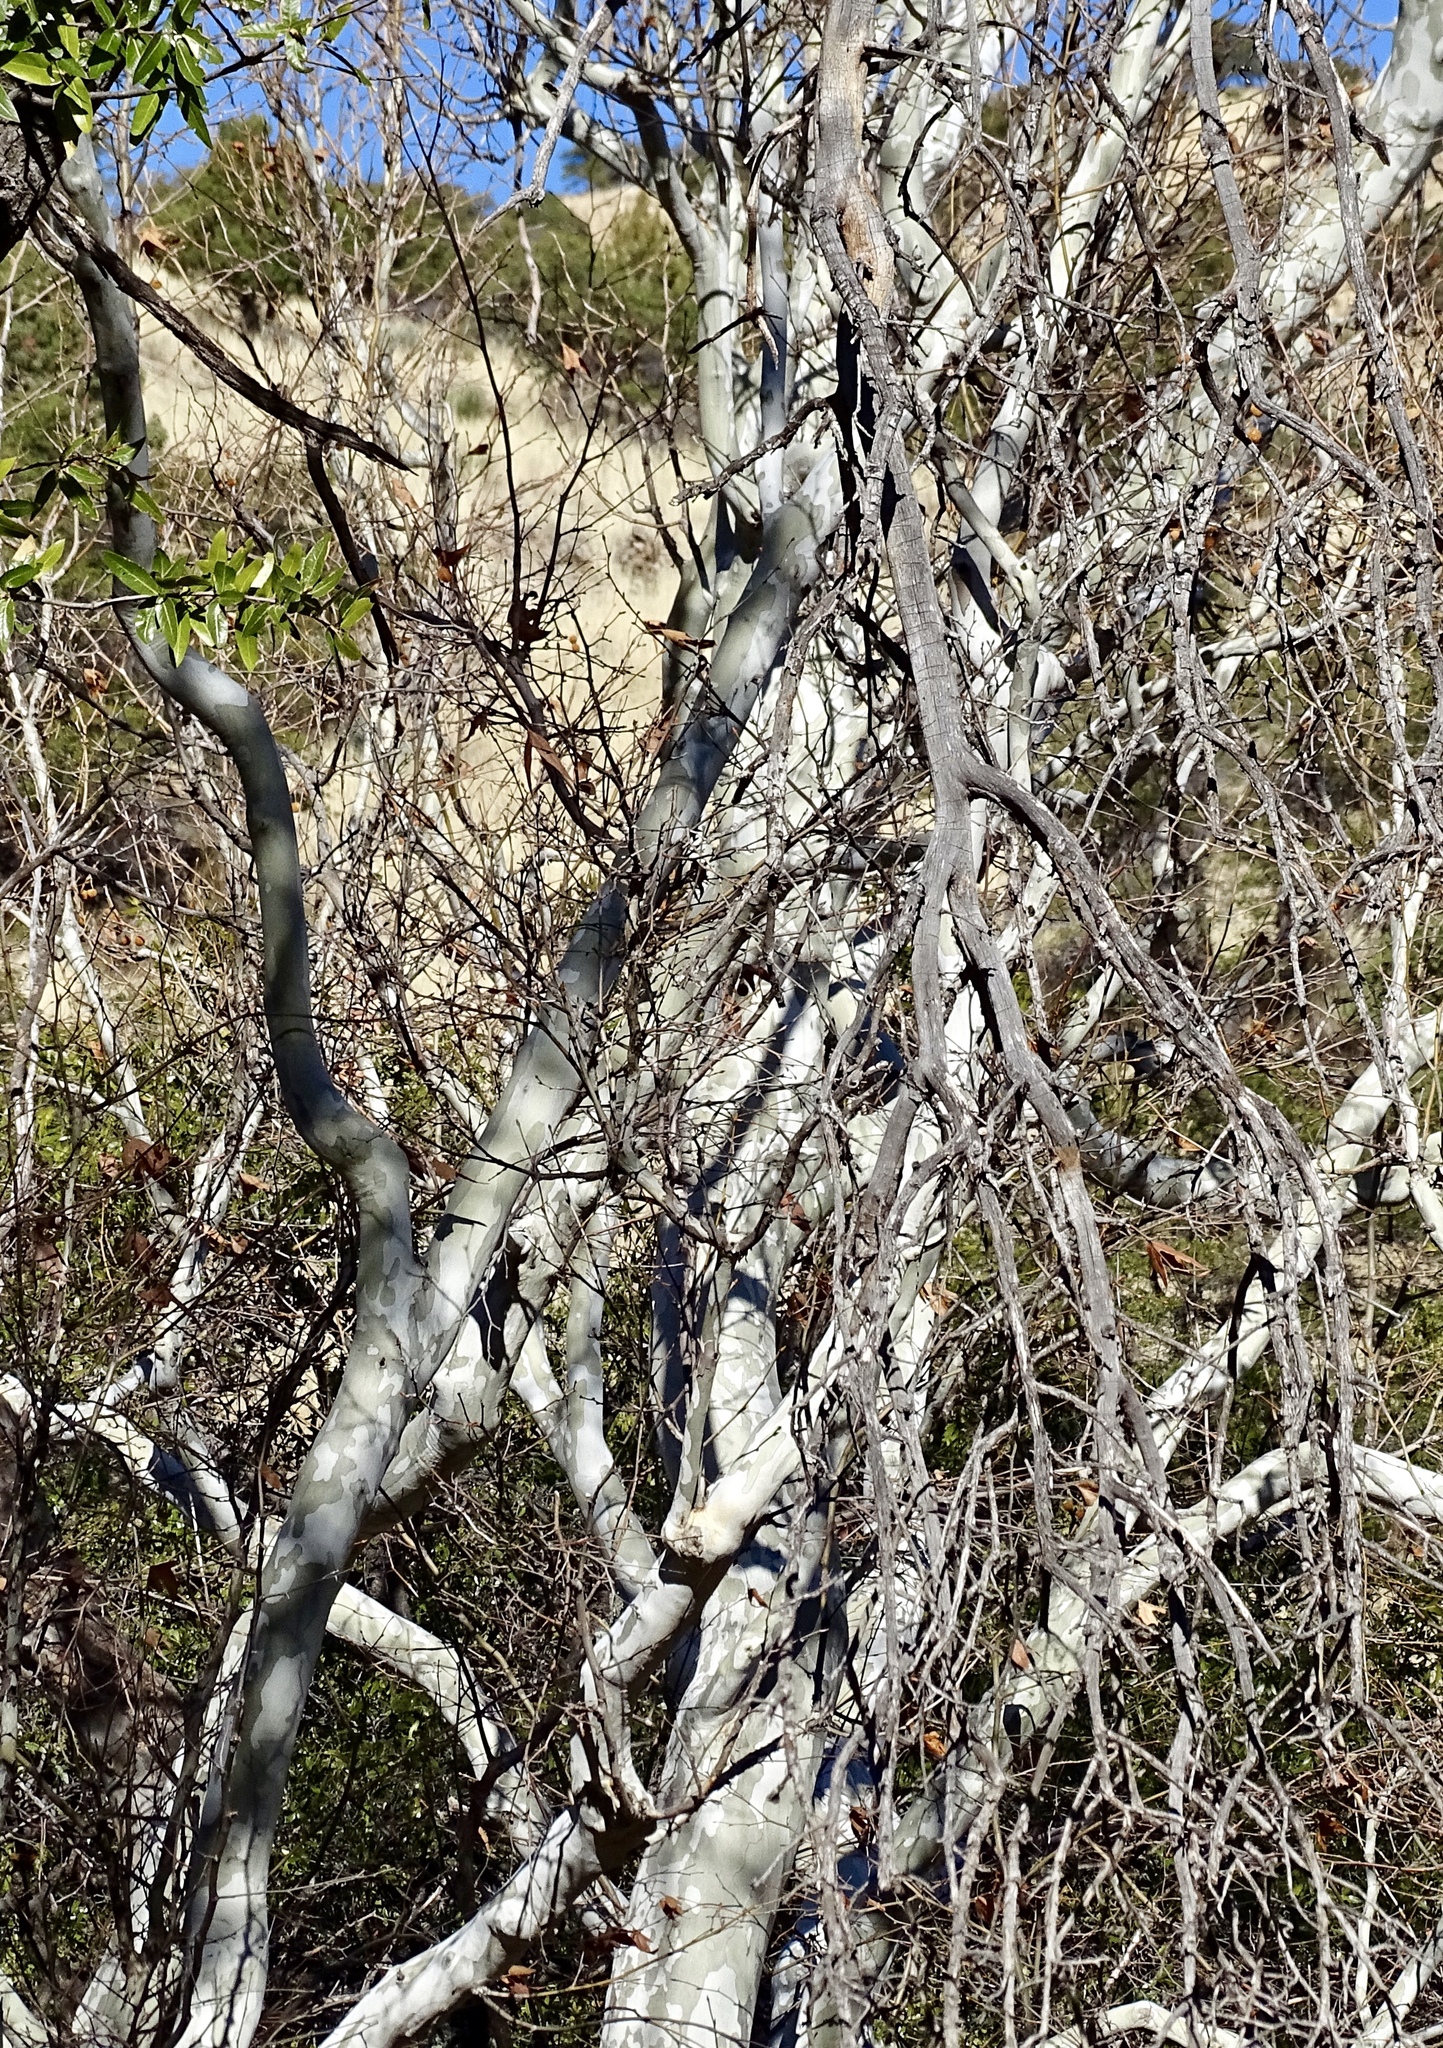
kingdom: Plantae
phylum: Tracheophyta
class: Magnoliopsida
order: Proteales
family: Platanaceae
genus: Platanus
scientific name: Platanus wrightii
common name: Arizona sycamore
